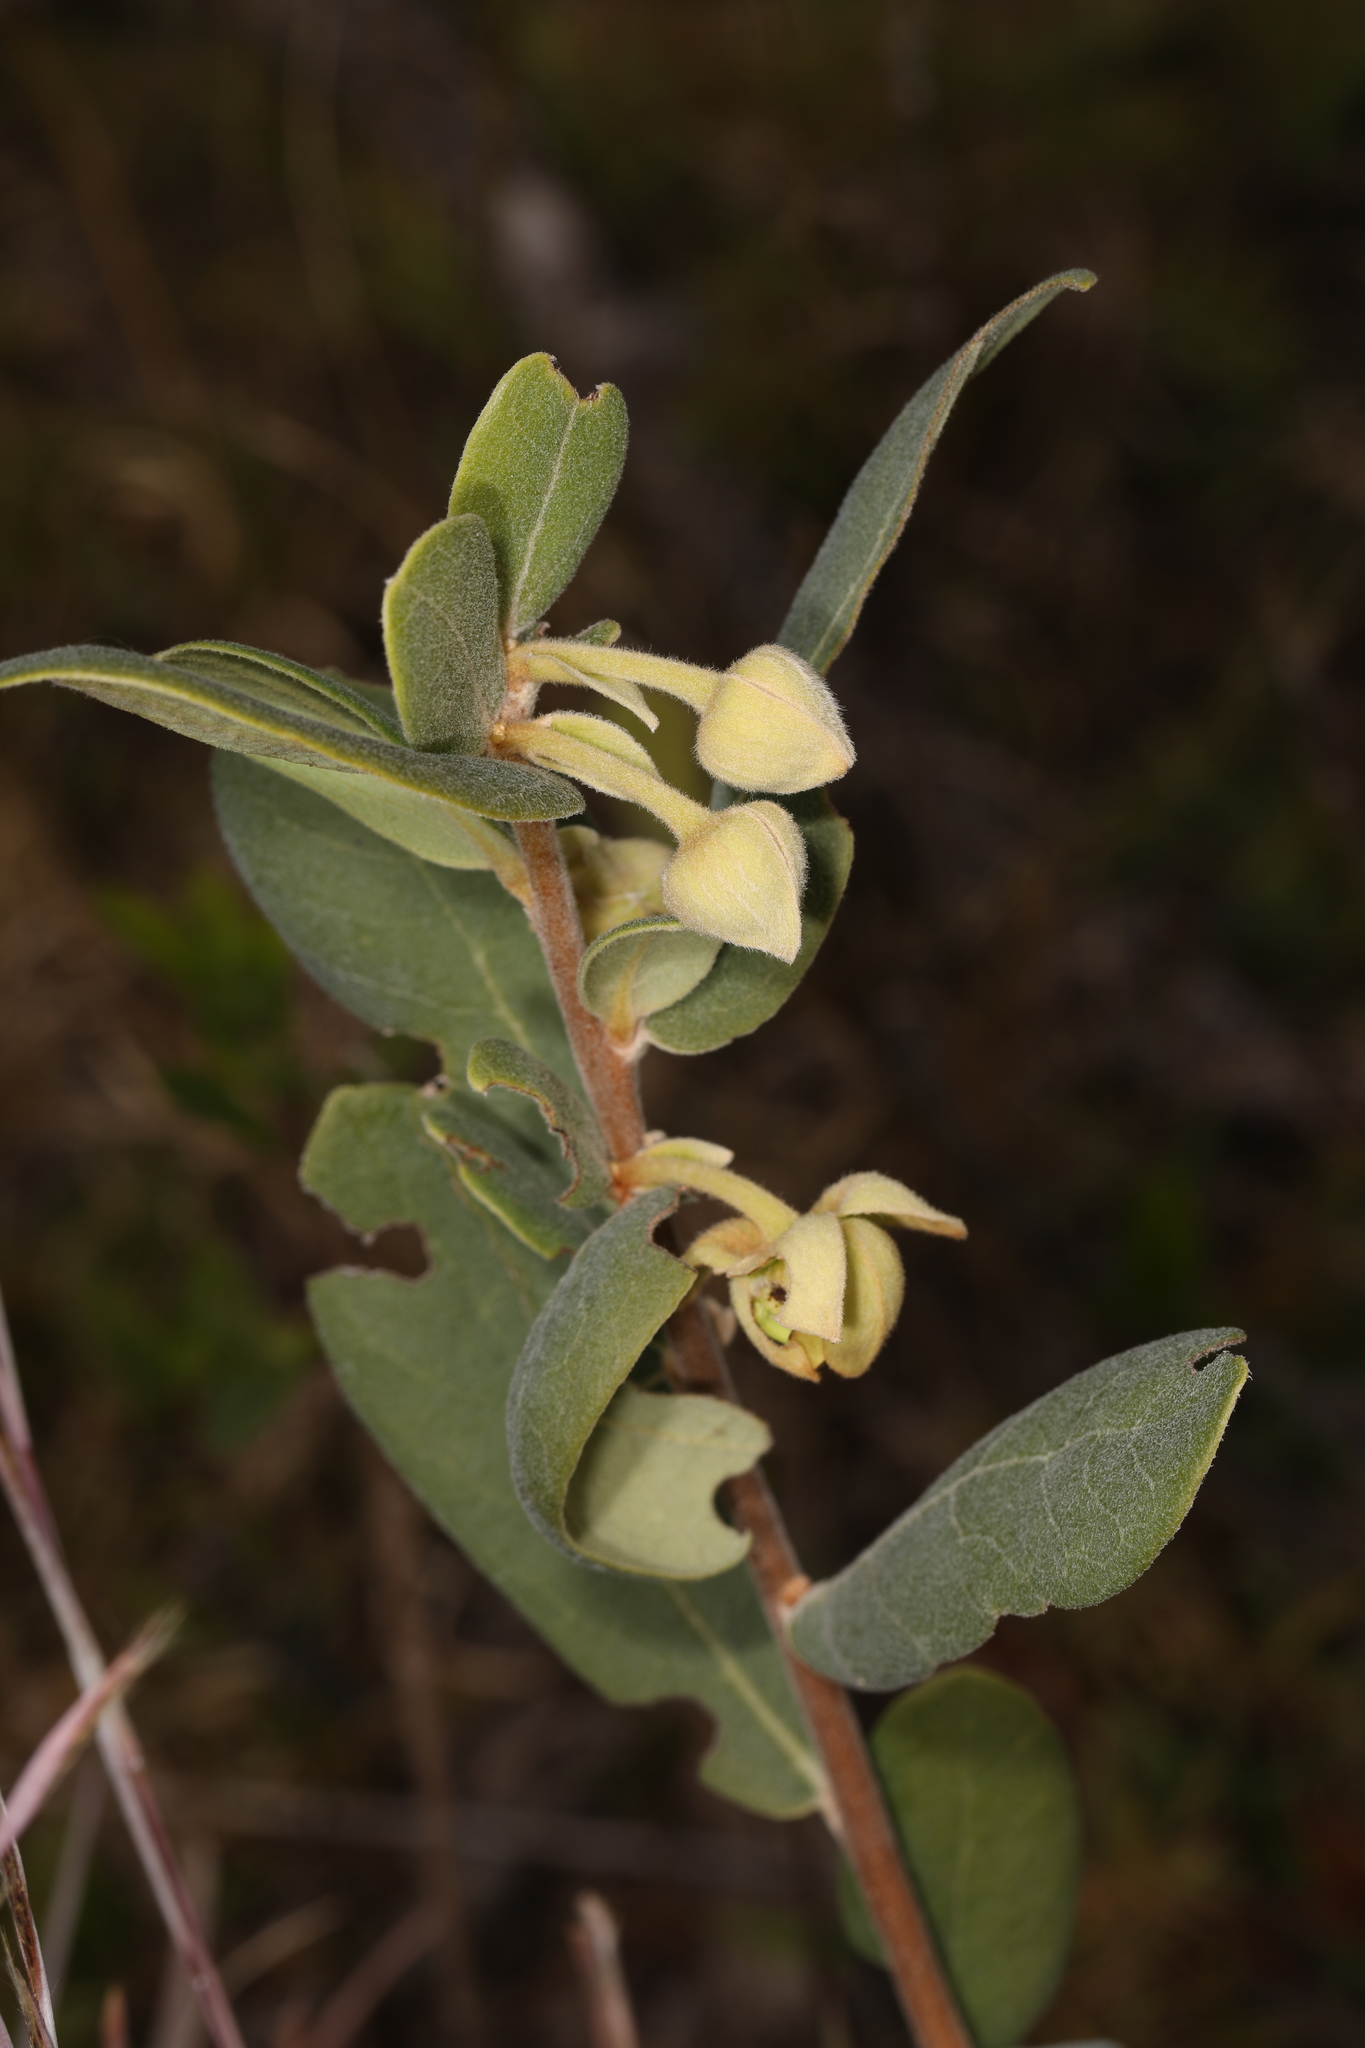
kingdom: Plantae
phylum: Tracheophyta
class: Magnoliopsida
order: Magnoliales
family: Annonaceae
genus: Asimina
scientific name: Asimina reticulata
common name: Flag pawpaw
